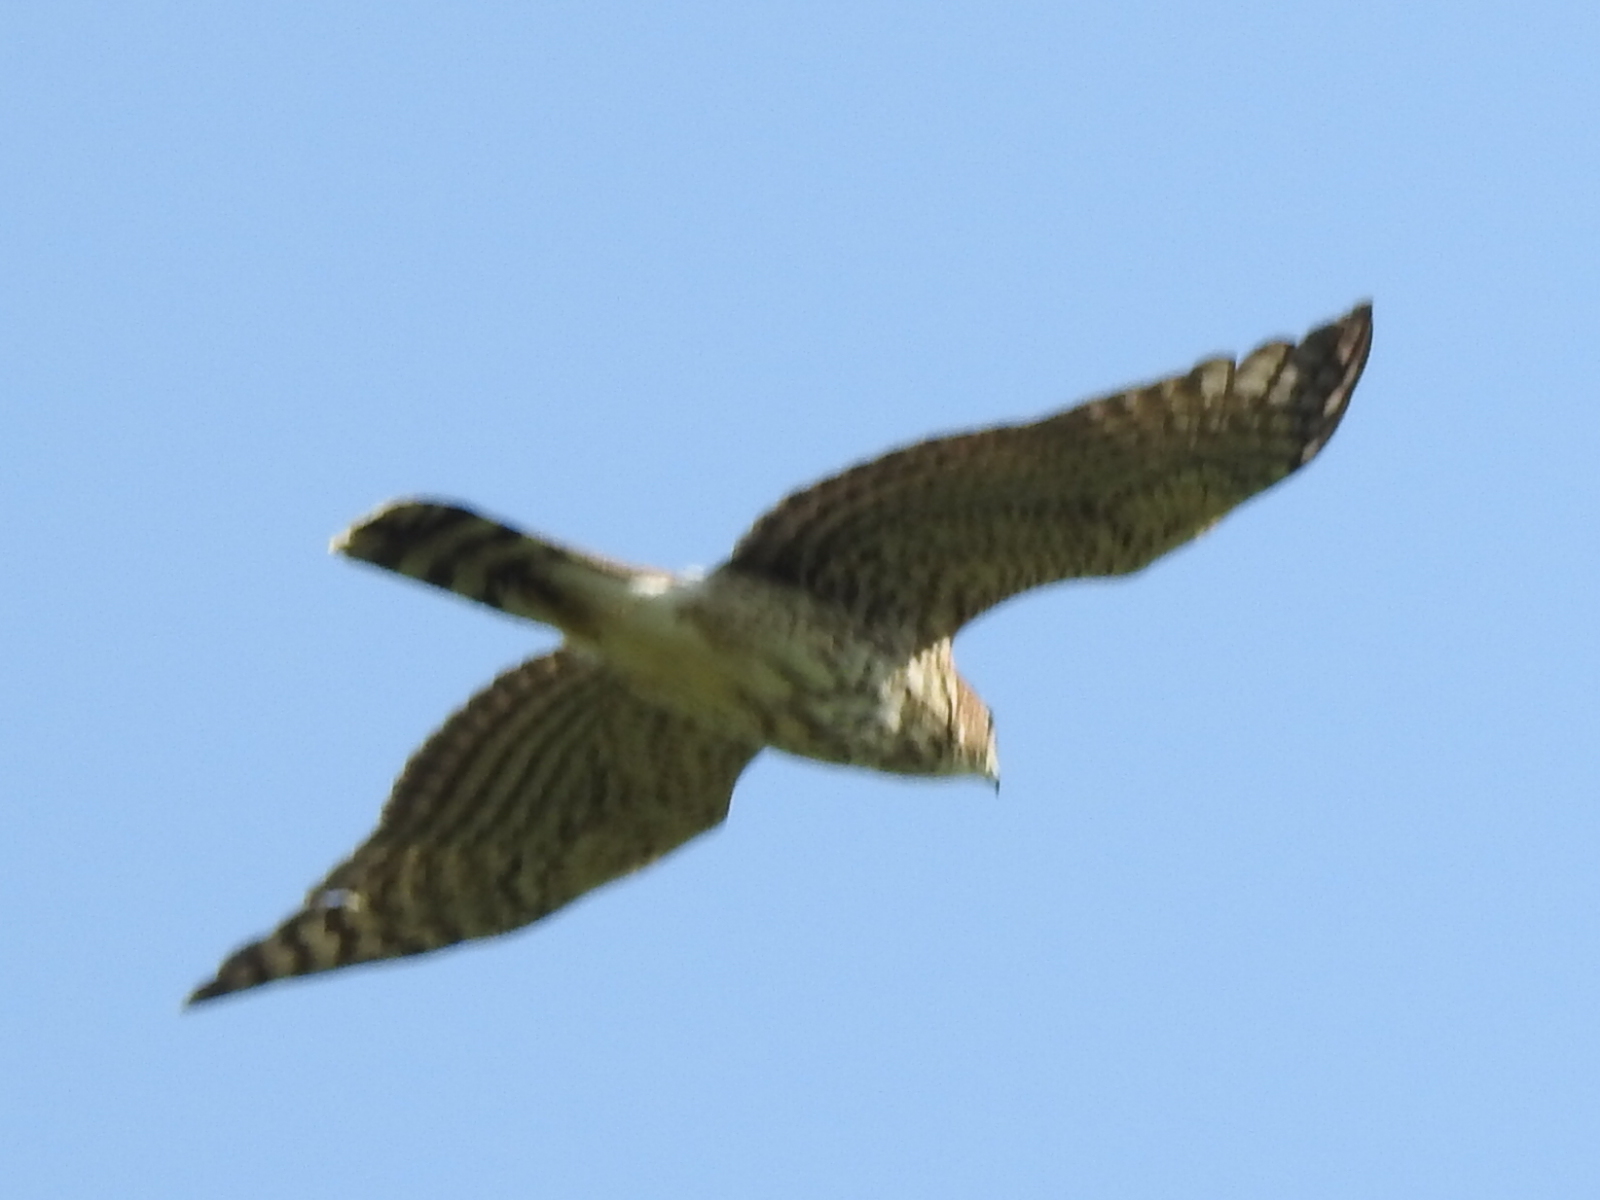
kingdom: Animalia
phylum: Chordata
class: Aves
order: Accipitriformes
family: Accipitridae
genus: Accipiter
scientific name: Accipiter cooperii
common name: Cooper's hawk
